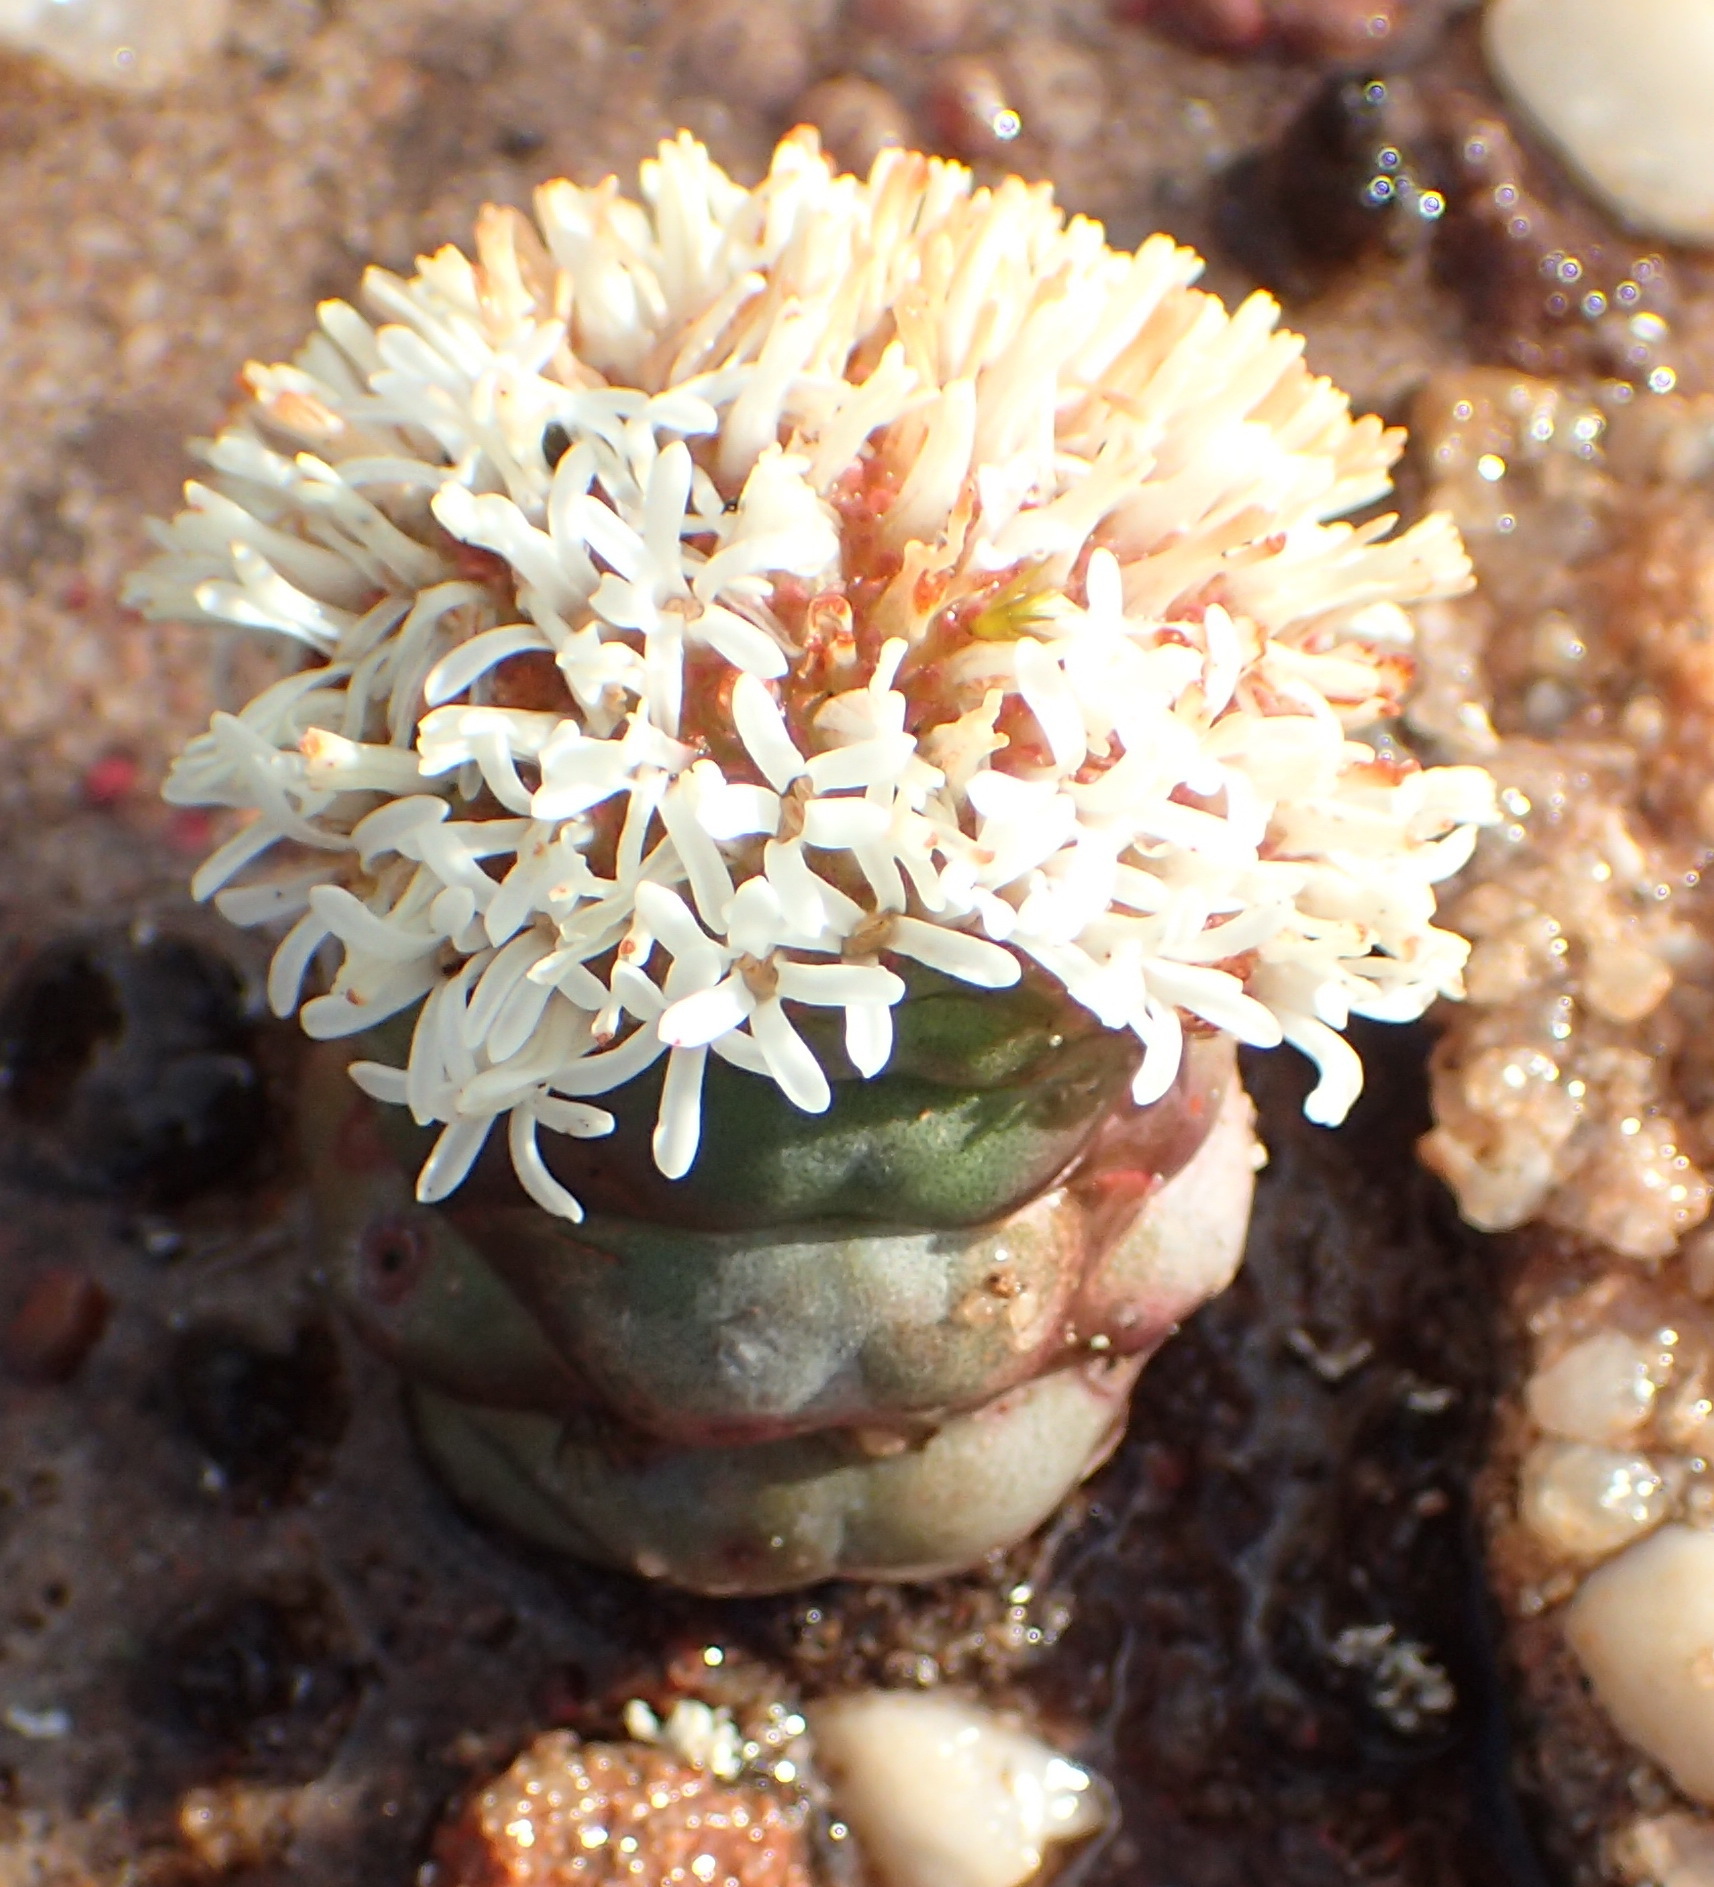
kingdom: Plantae
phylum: Tracheophyta
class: Magnoliopsida
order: Saxifragales
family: Crassulaceae
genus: Crassula
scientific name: Crassula columnaris
